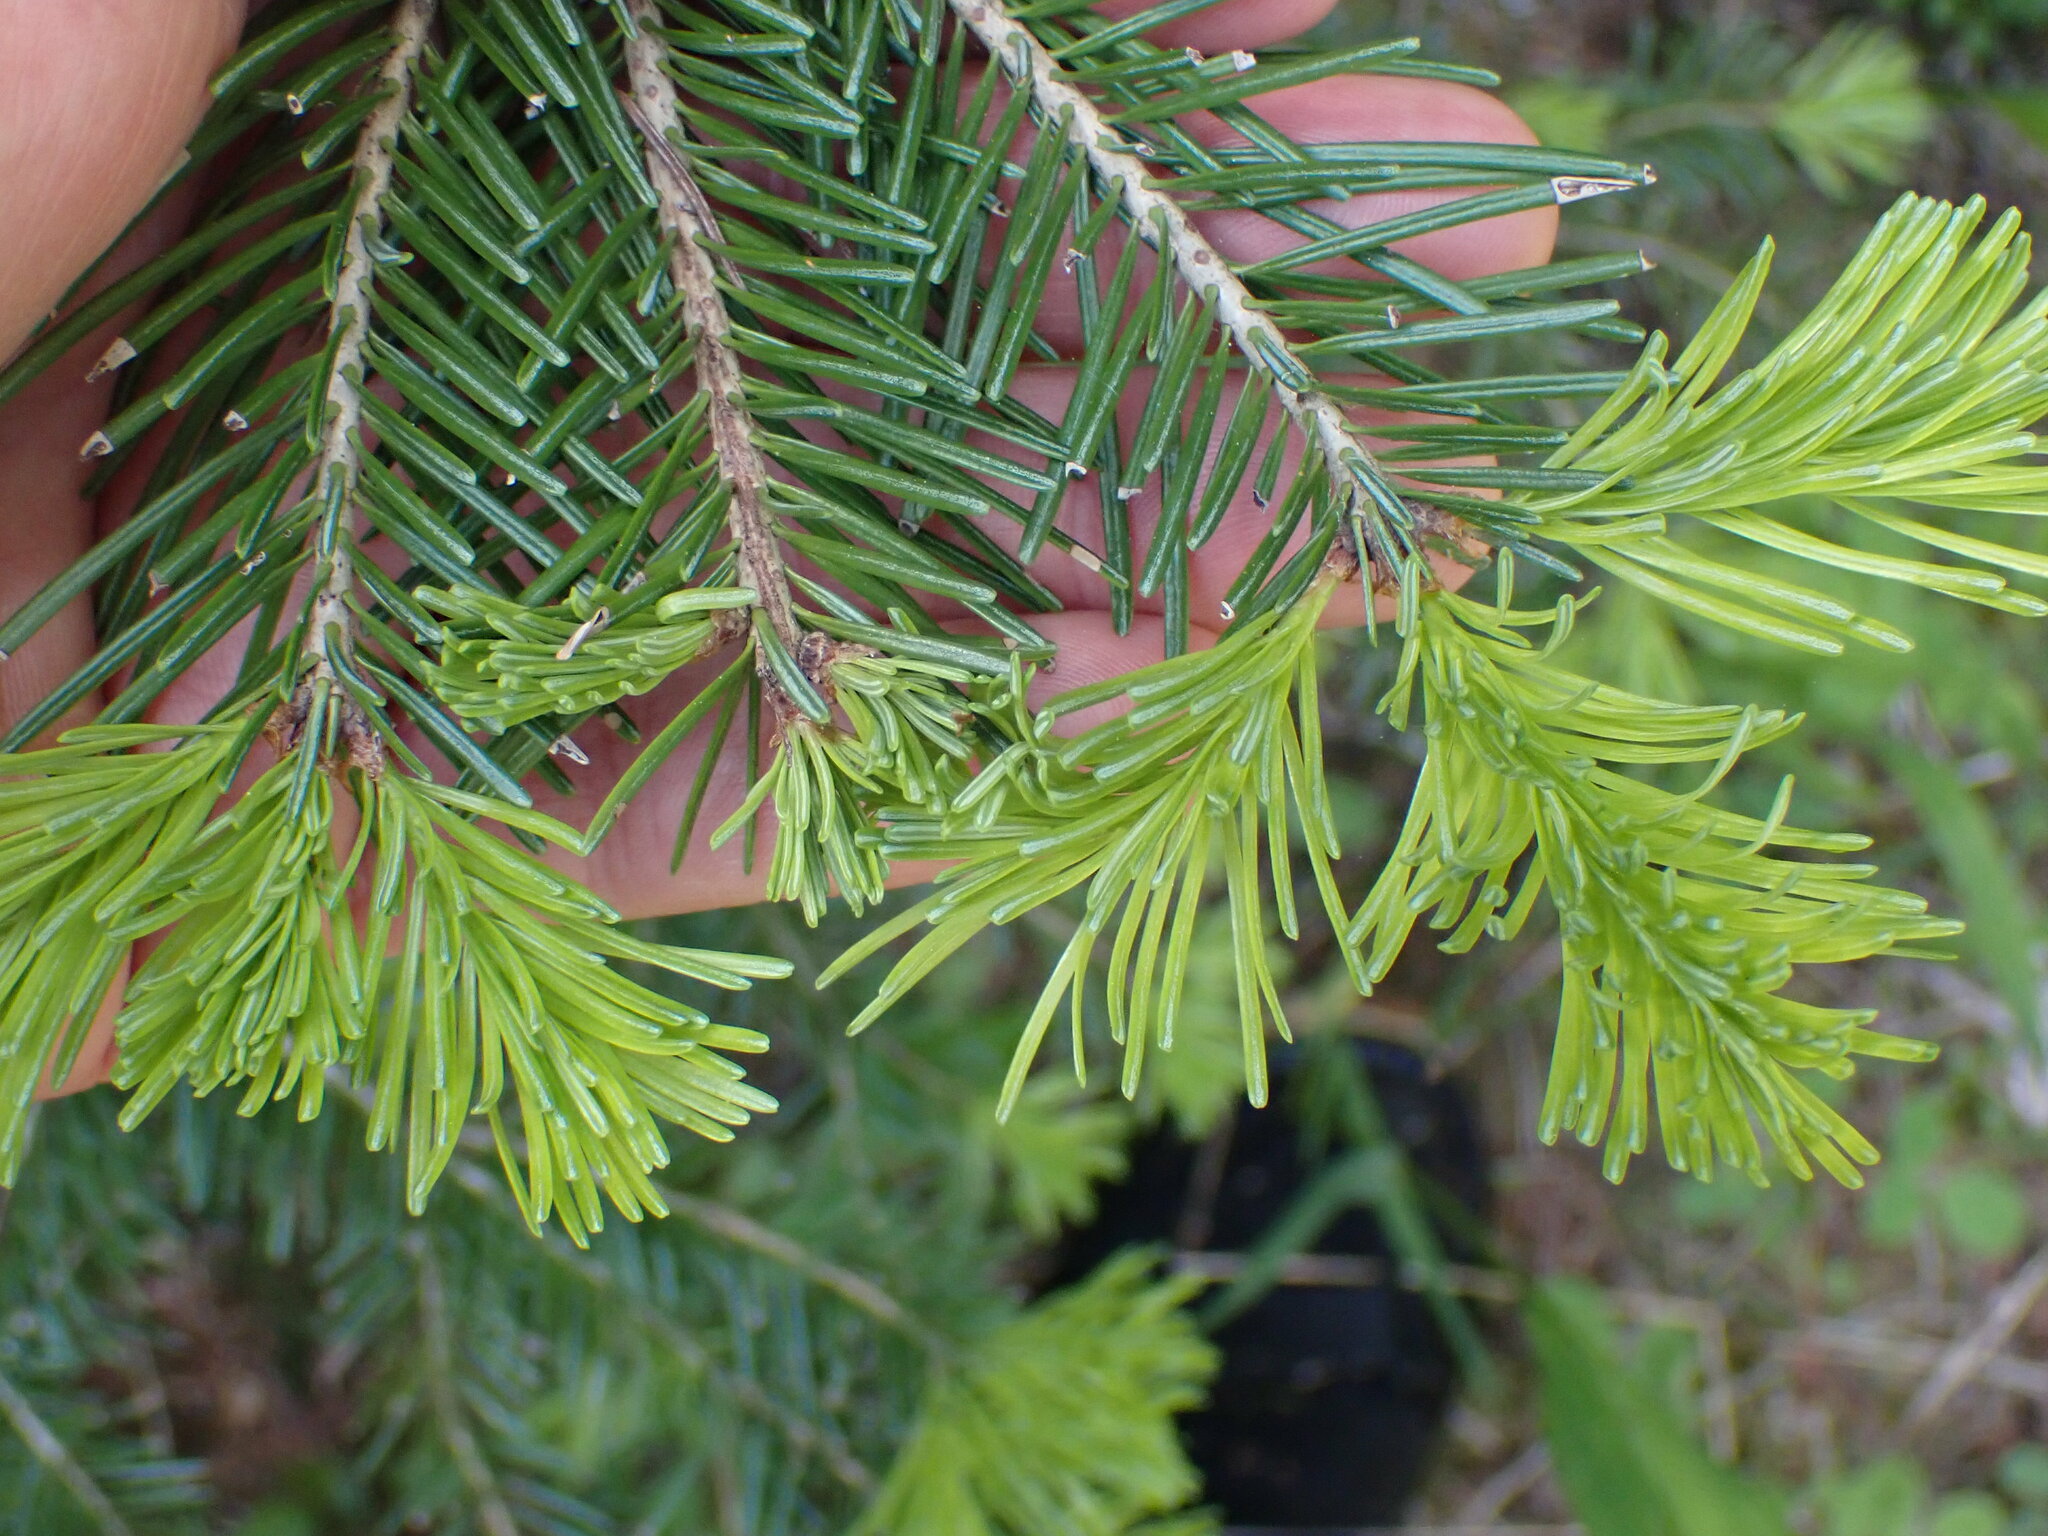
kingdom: Plantae
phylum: Tracheophyta
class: Pinopsida
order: Pinales
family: Pinaceae
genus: Abies
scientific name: Abies lasiocarpa
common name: Subalpine fir
